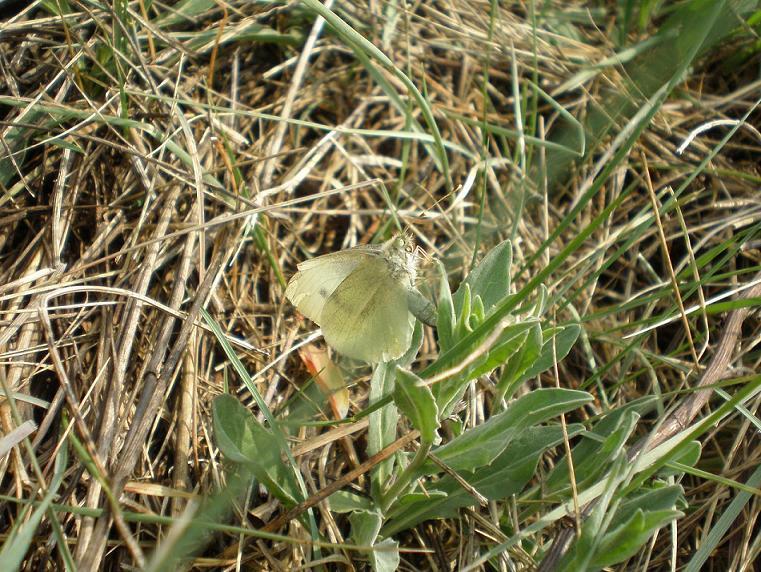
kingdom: Animalia
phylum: Arthropoda
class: Insecta
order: Lepidoptera
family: Pieridae
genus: Pieris
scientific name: Pieris rapae
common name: Small white
